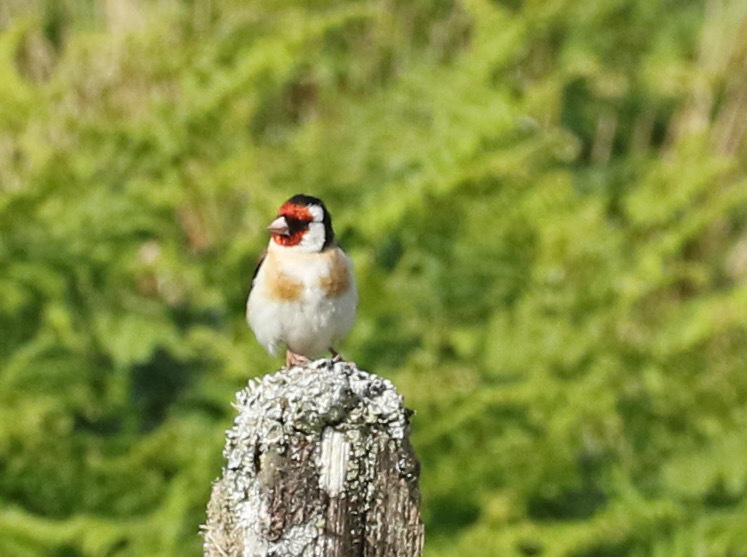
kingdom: Animalia
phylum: Chordata
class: Aves
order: Passeriformes
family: Fringillidae
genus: Carduelis
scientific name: Carduelis carduelis
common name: European goldfinch
